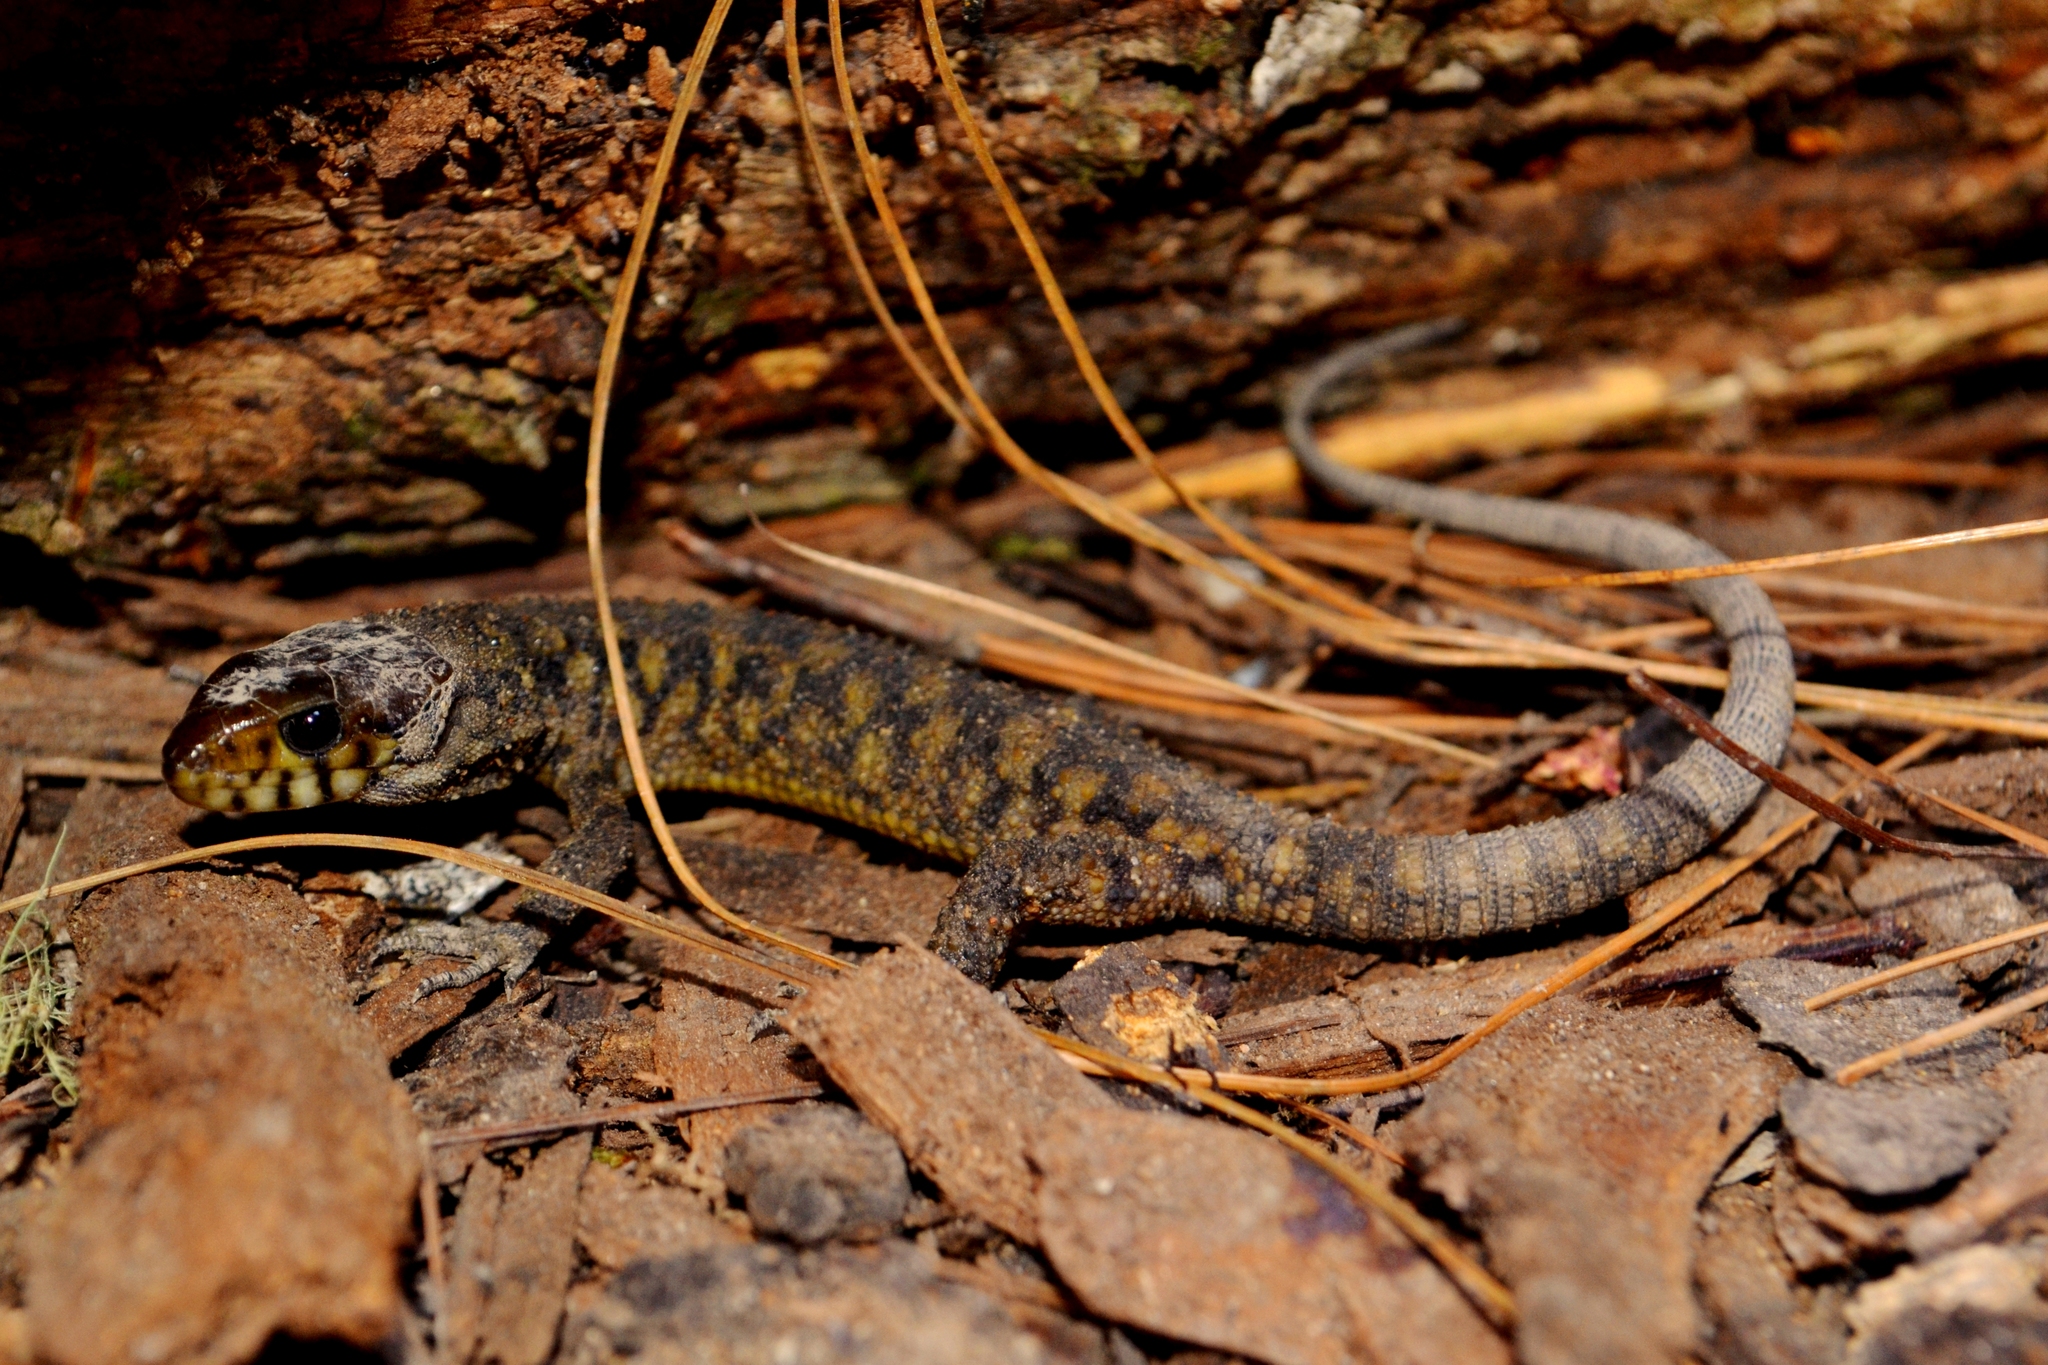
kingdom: Animalia
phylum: Chordata
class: Squamata
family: Xantusiidae
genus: Lepidophyma
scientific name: Lepidophyma smithii
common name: Smith's tropical night lizard
